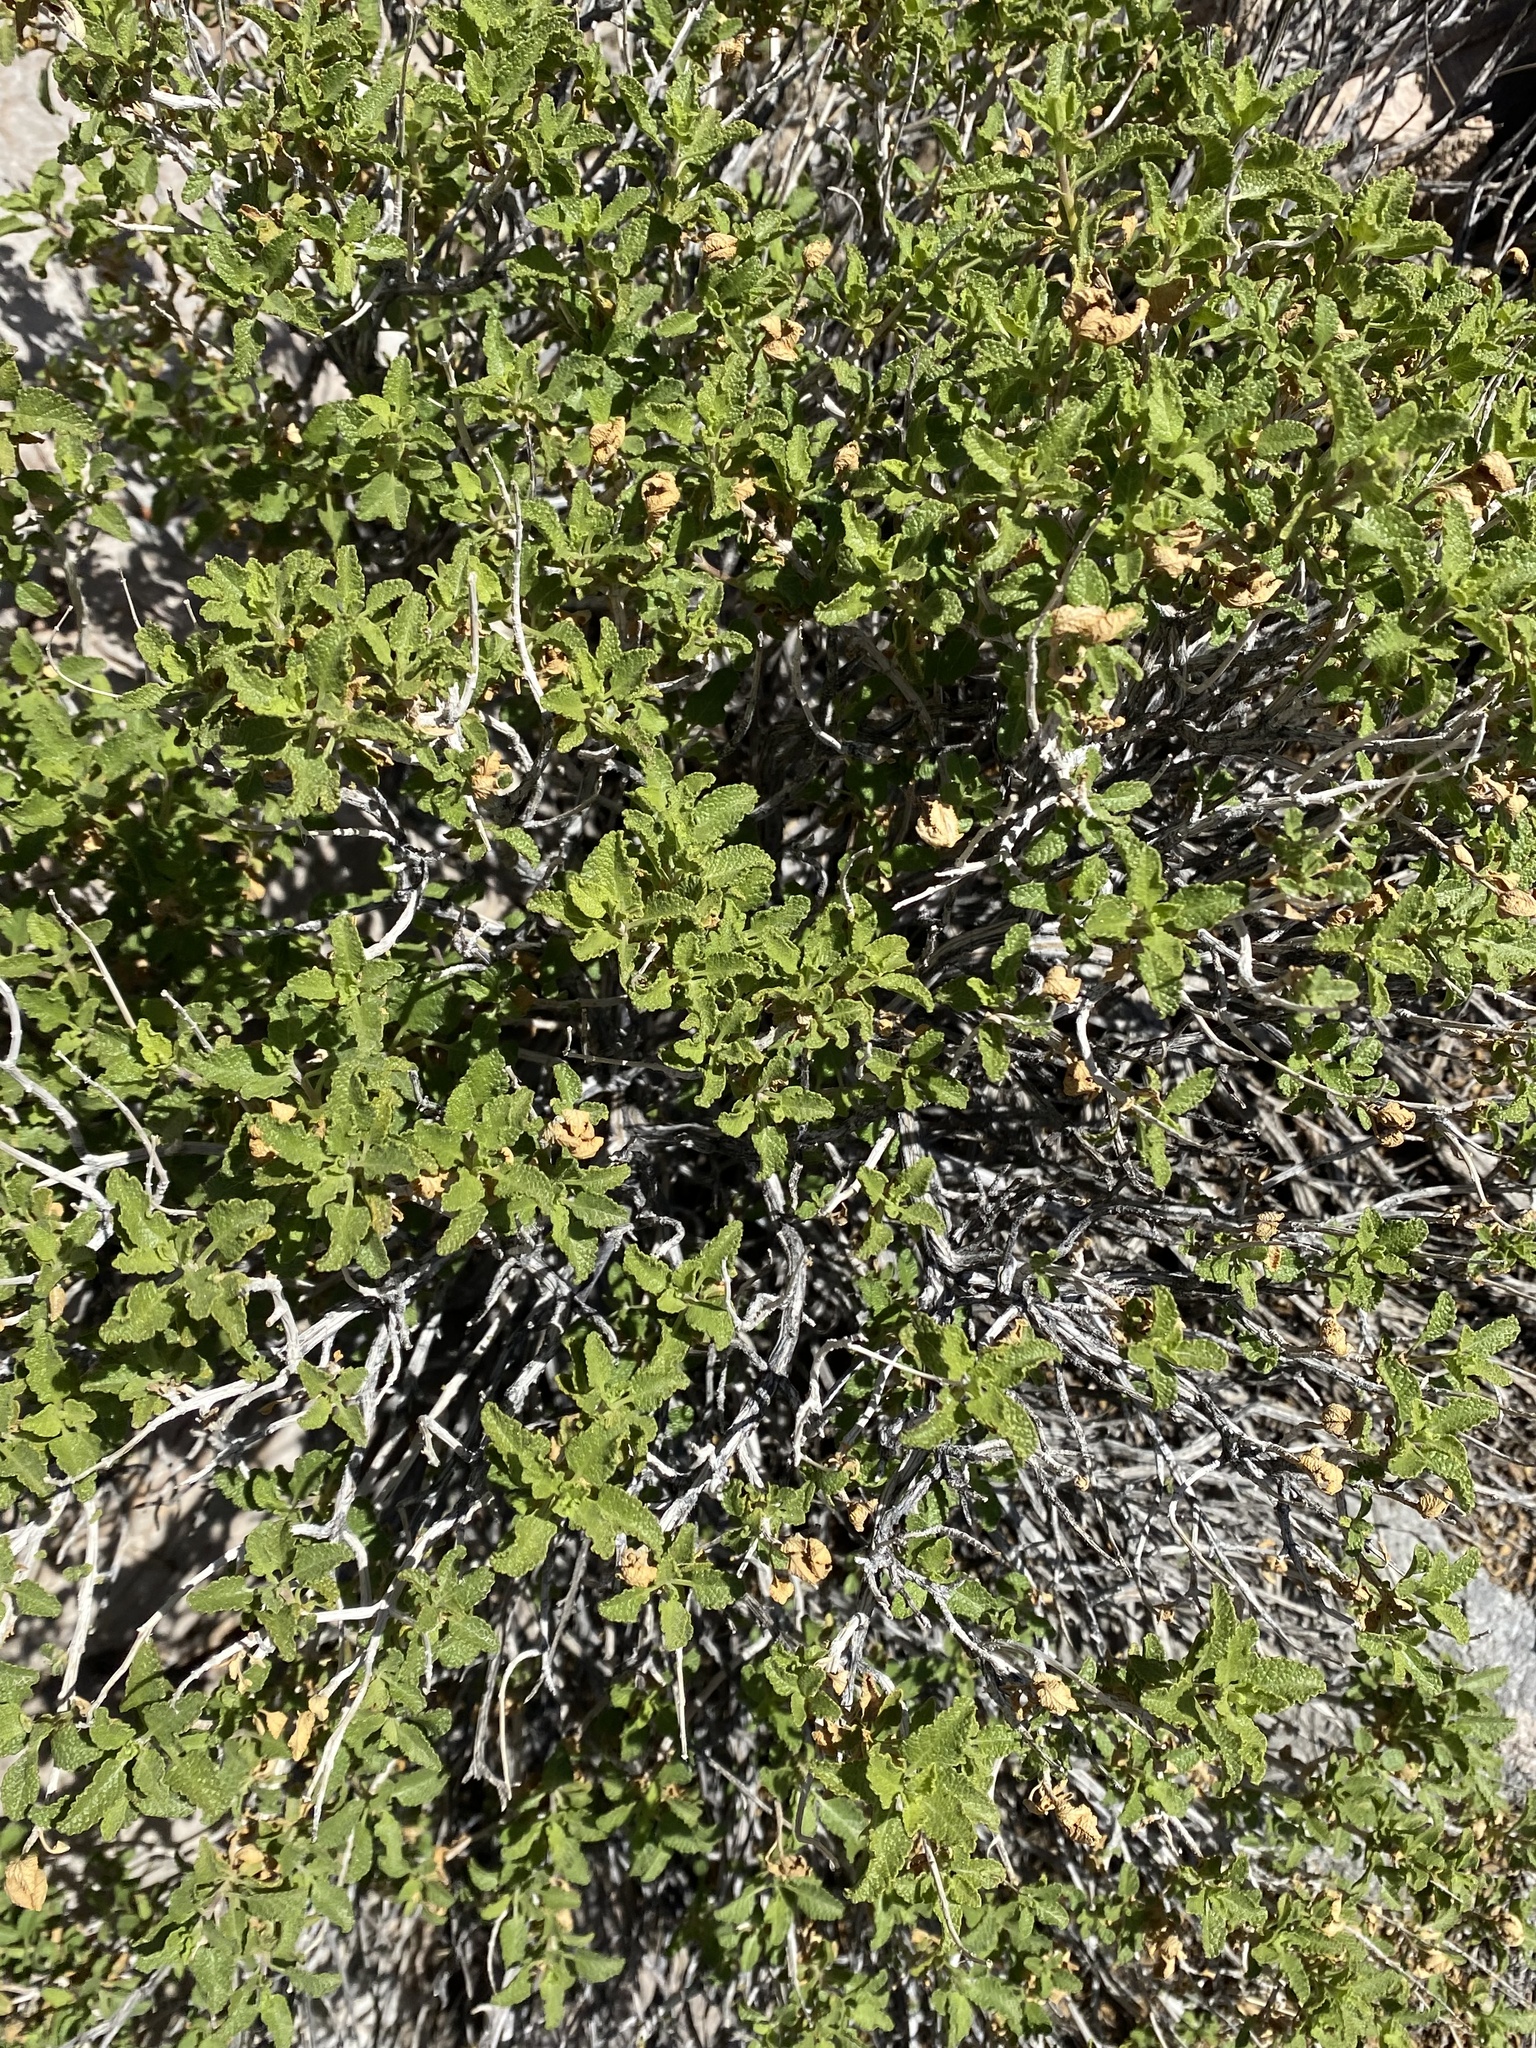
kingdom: Plantae
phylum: Tracheophyta
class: Magnoliopsida
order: Lamiales
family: Lamiaceae
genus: Salvia
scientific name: Salvia mohavensis
